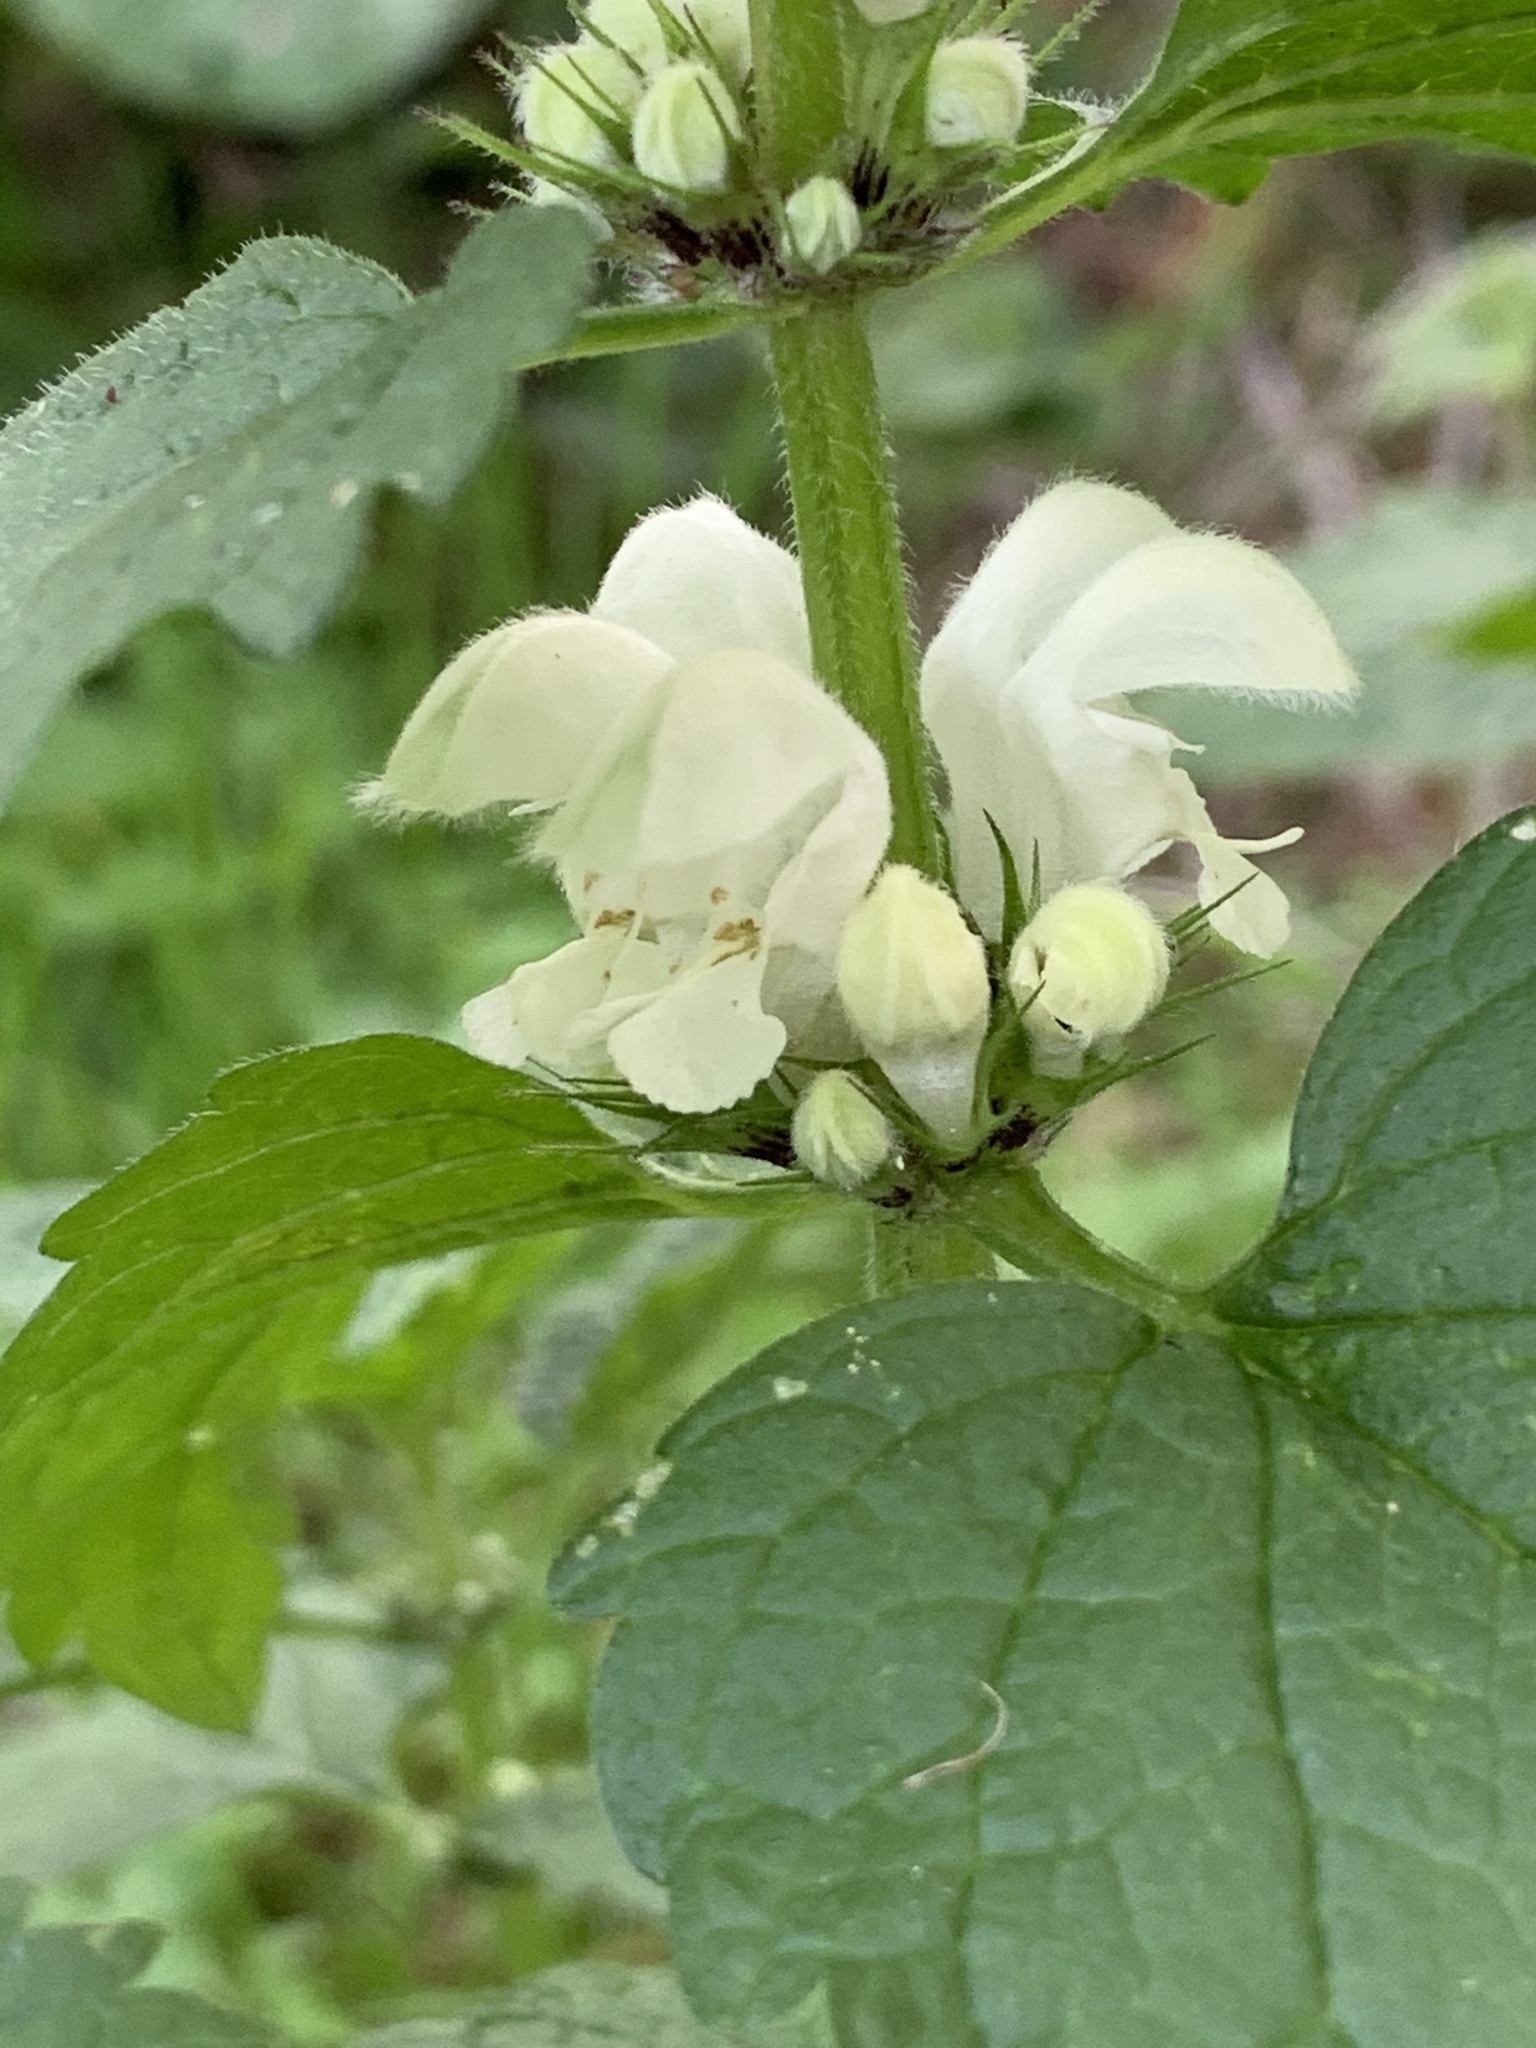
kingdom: Plantae
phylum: Tracheophyta
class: Magnoliopsida
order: Lamiales
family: Lamiaceae
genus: Lamium
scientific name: Lamium album
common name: White dead-nettle
